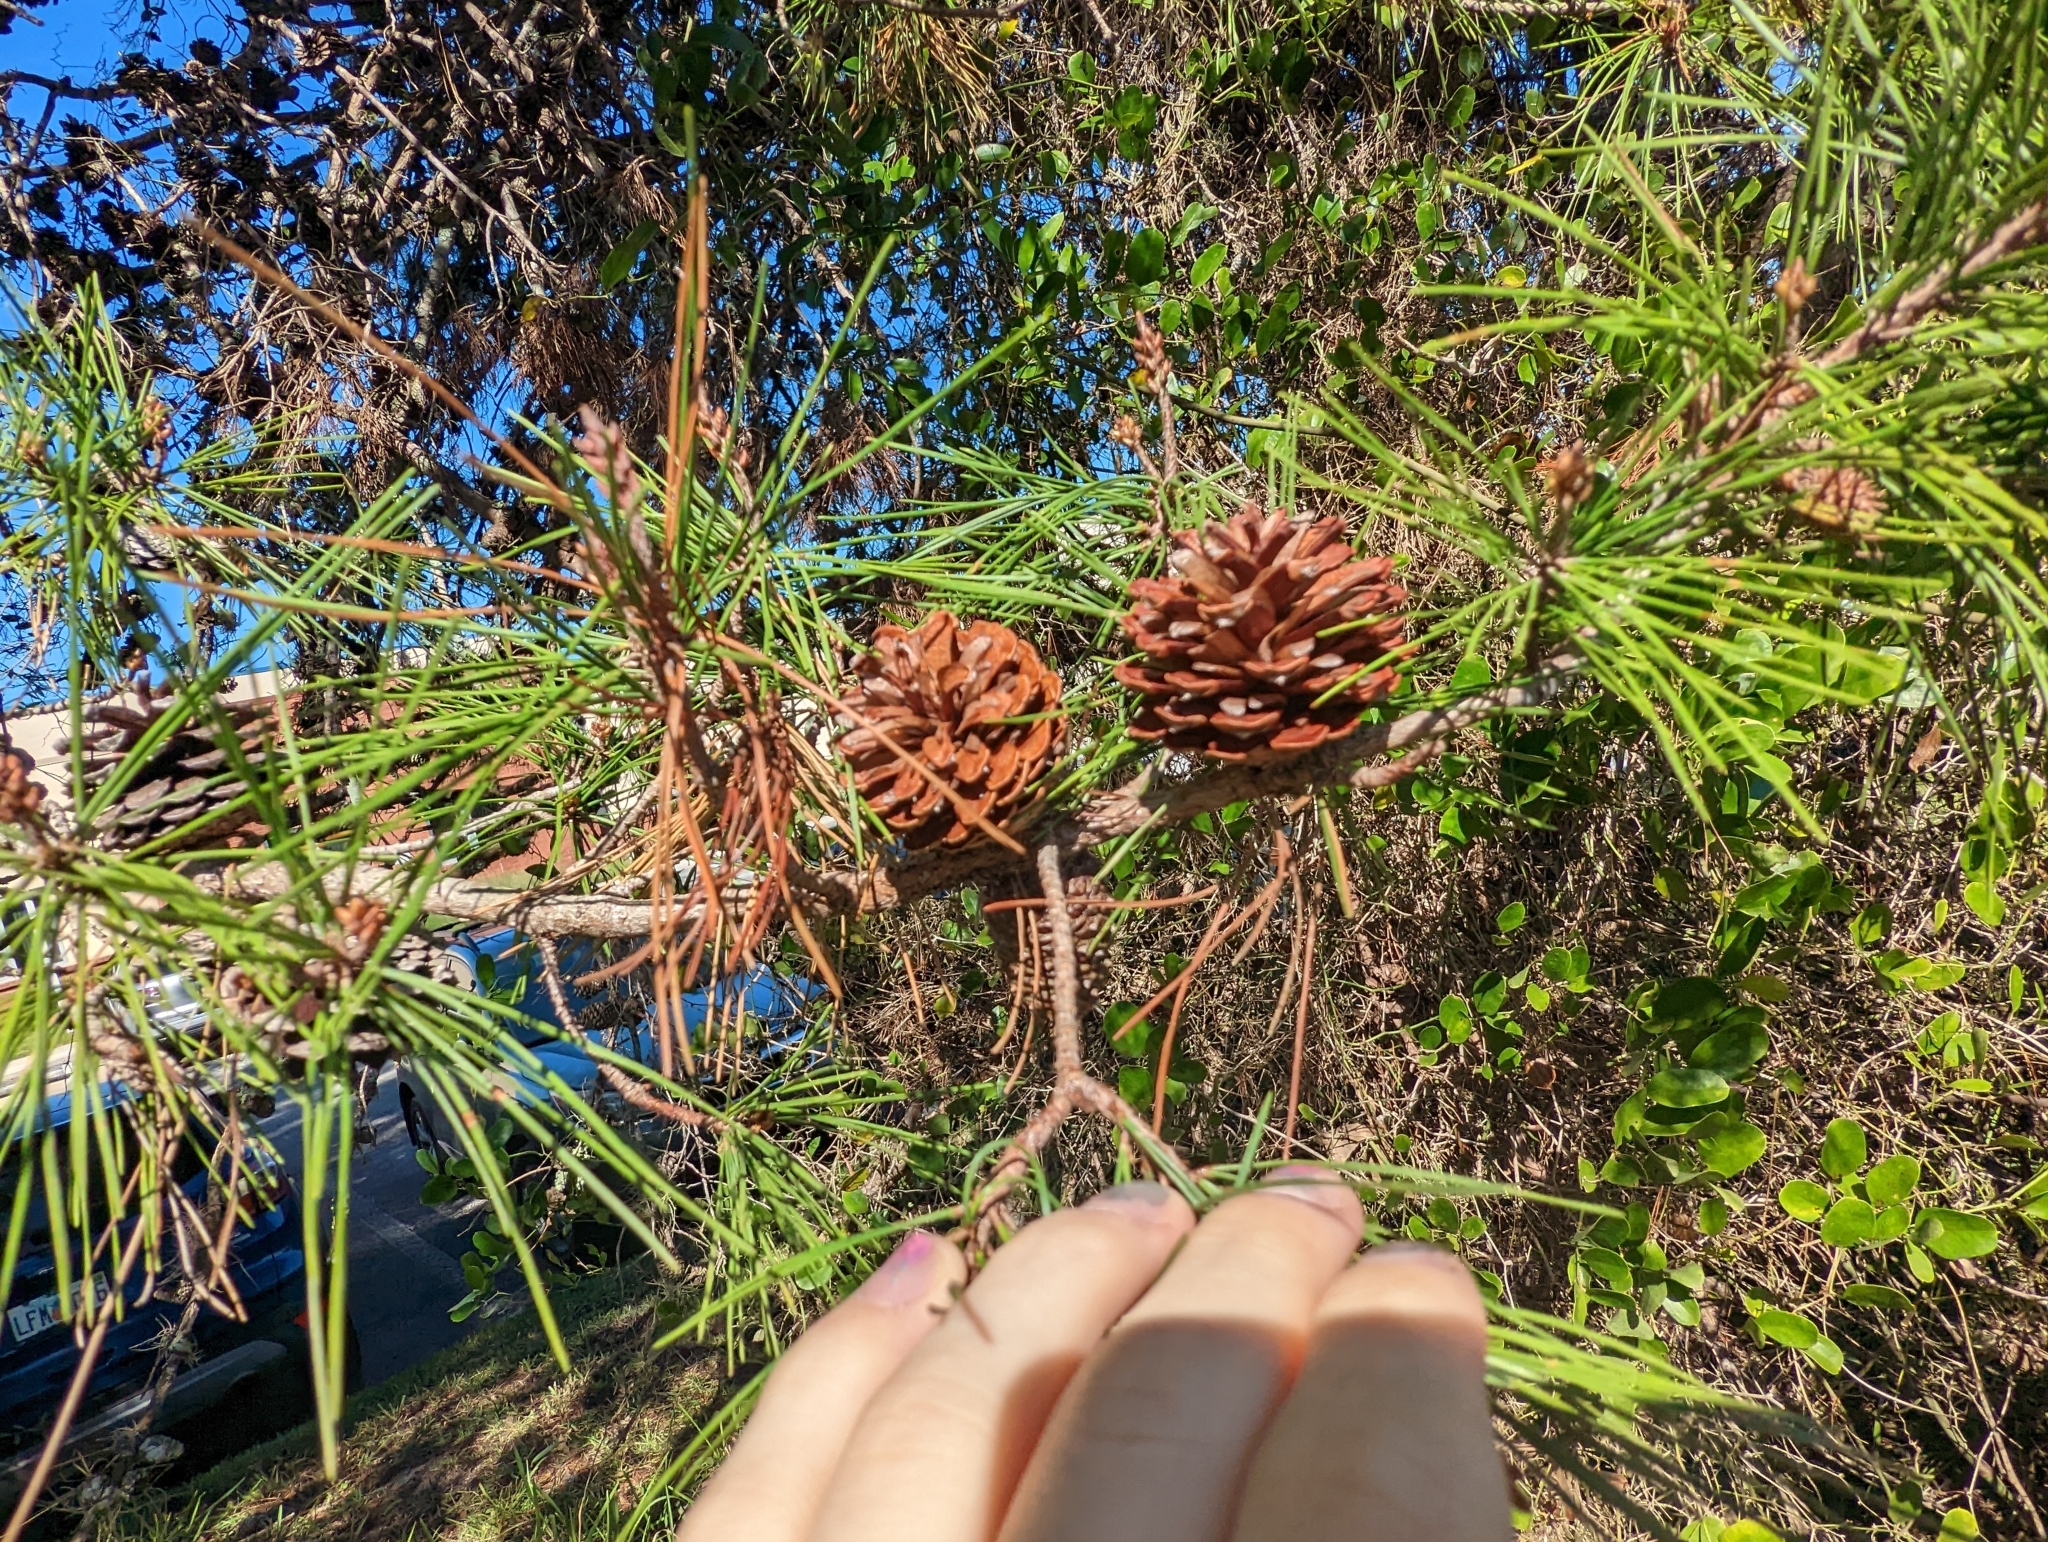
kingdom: Plantae
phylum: Tracheophyta
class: Pinopsida
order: Pinales
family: Pinaceae
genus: Pinus
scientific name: Pinus clausa
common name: Sand pine
